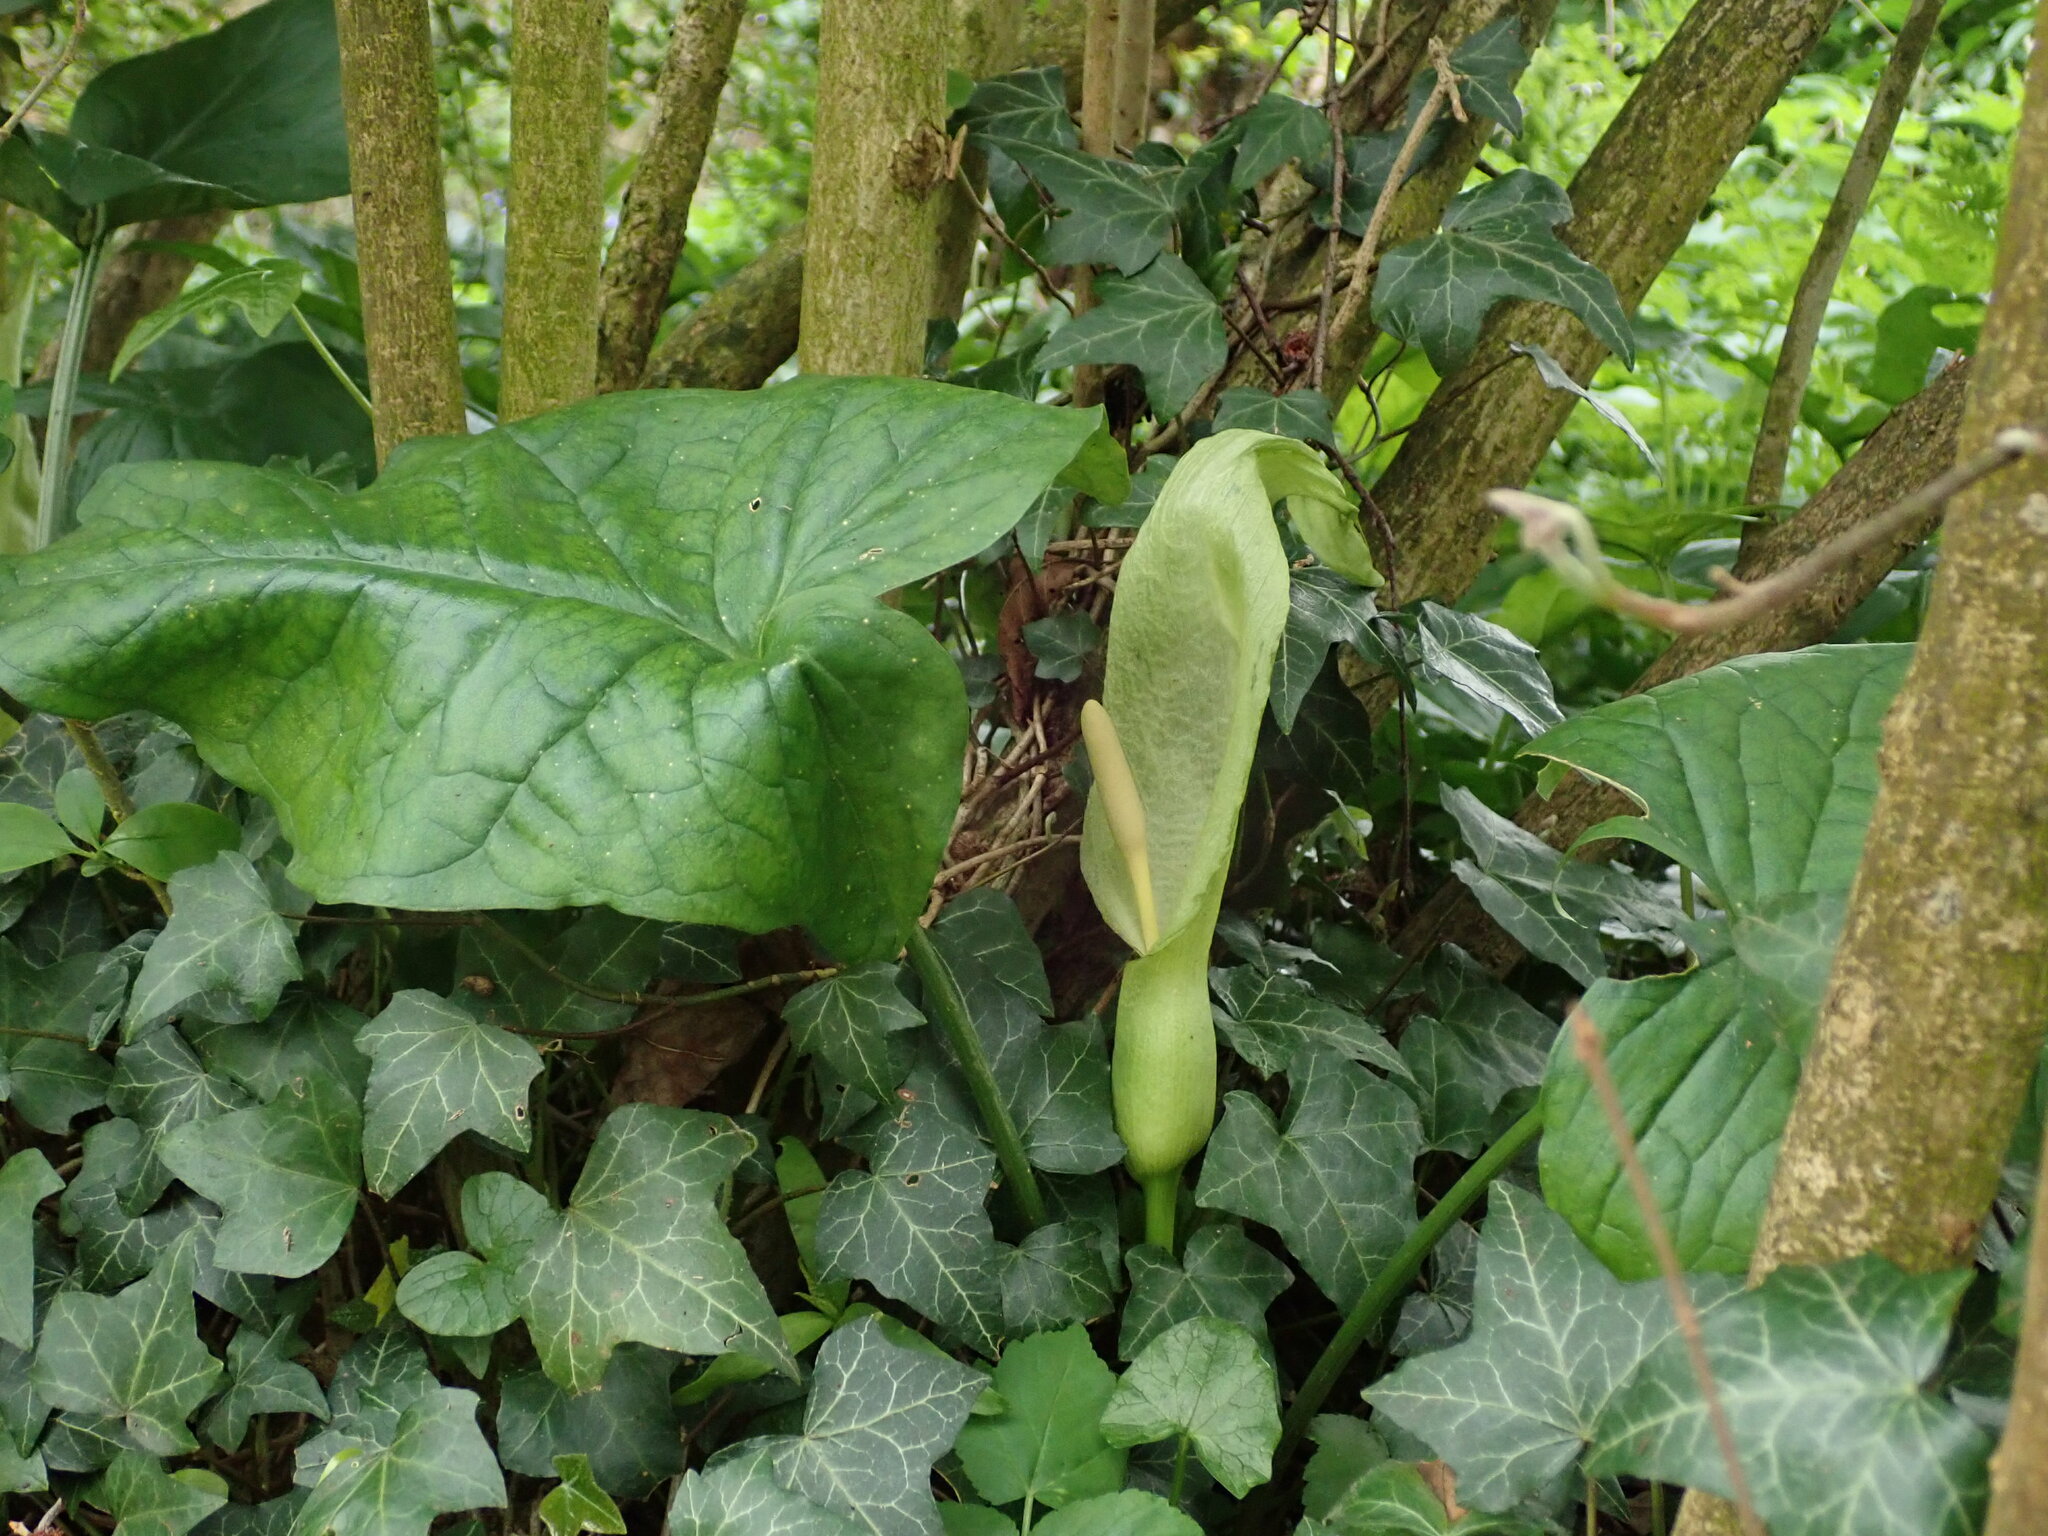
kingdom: Plantae
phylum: Tracheophyta
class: Liliopsida
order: Alismatales
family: Araceae
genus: Arum
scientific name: Arum maculatum
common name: Lords-and-ladies
